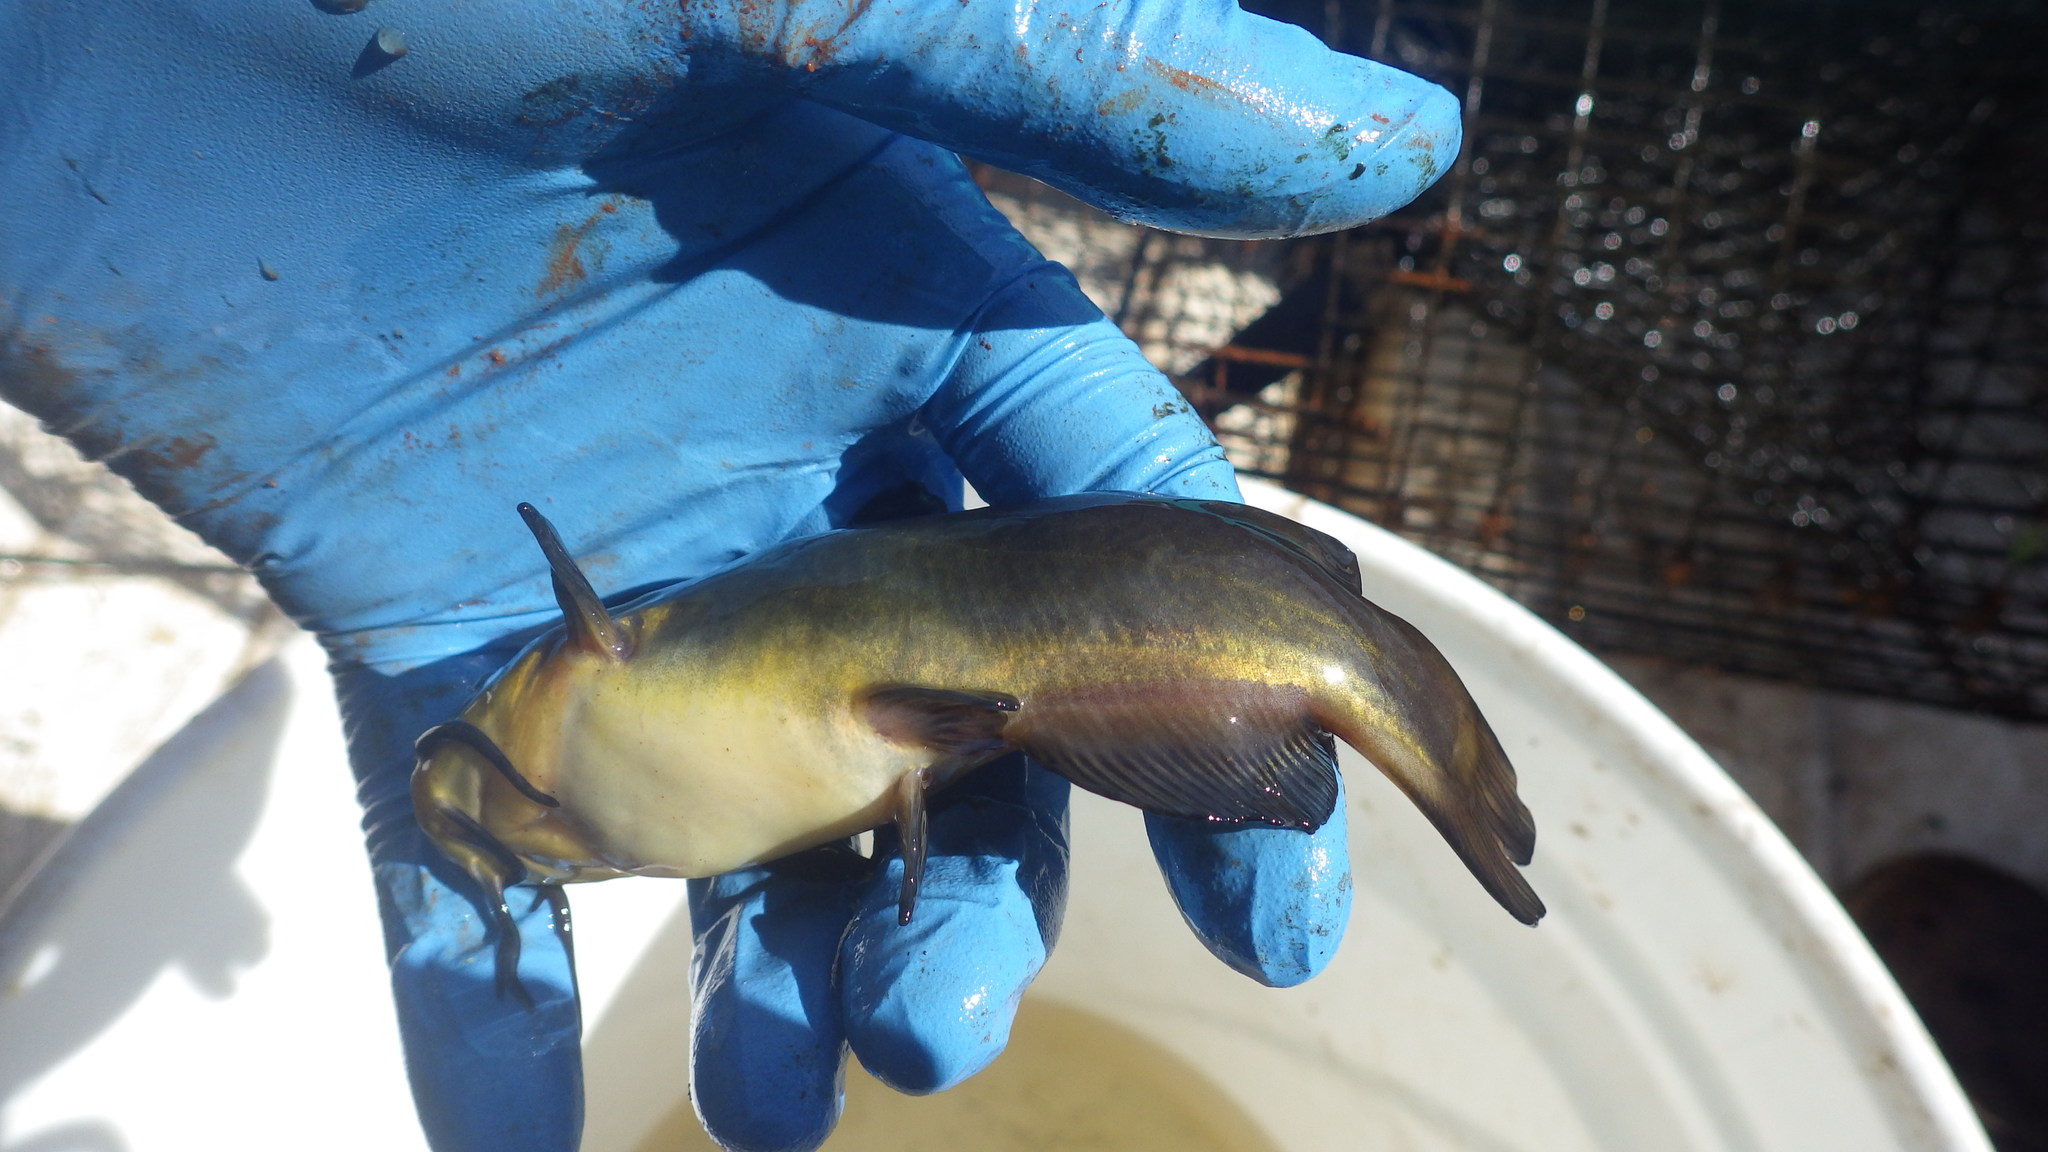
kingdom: Animalia
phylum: Chordata
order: Siluriformes
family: Ictaluridae
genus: Ameiurus
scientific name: Ameiurus melas
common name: Black bullhead
